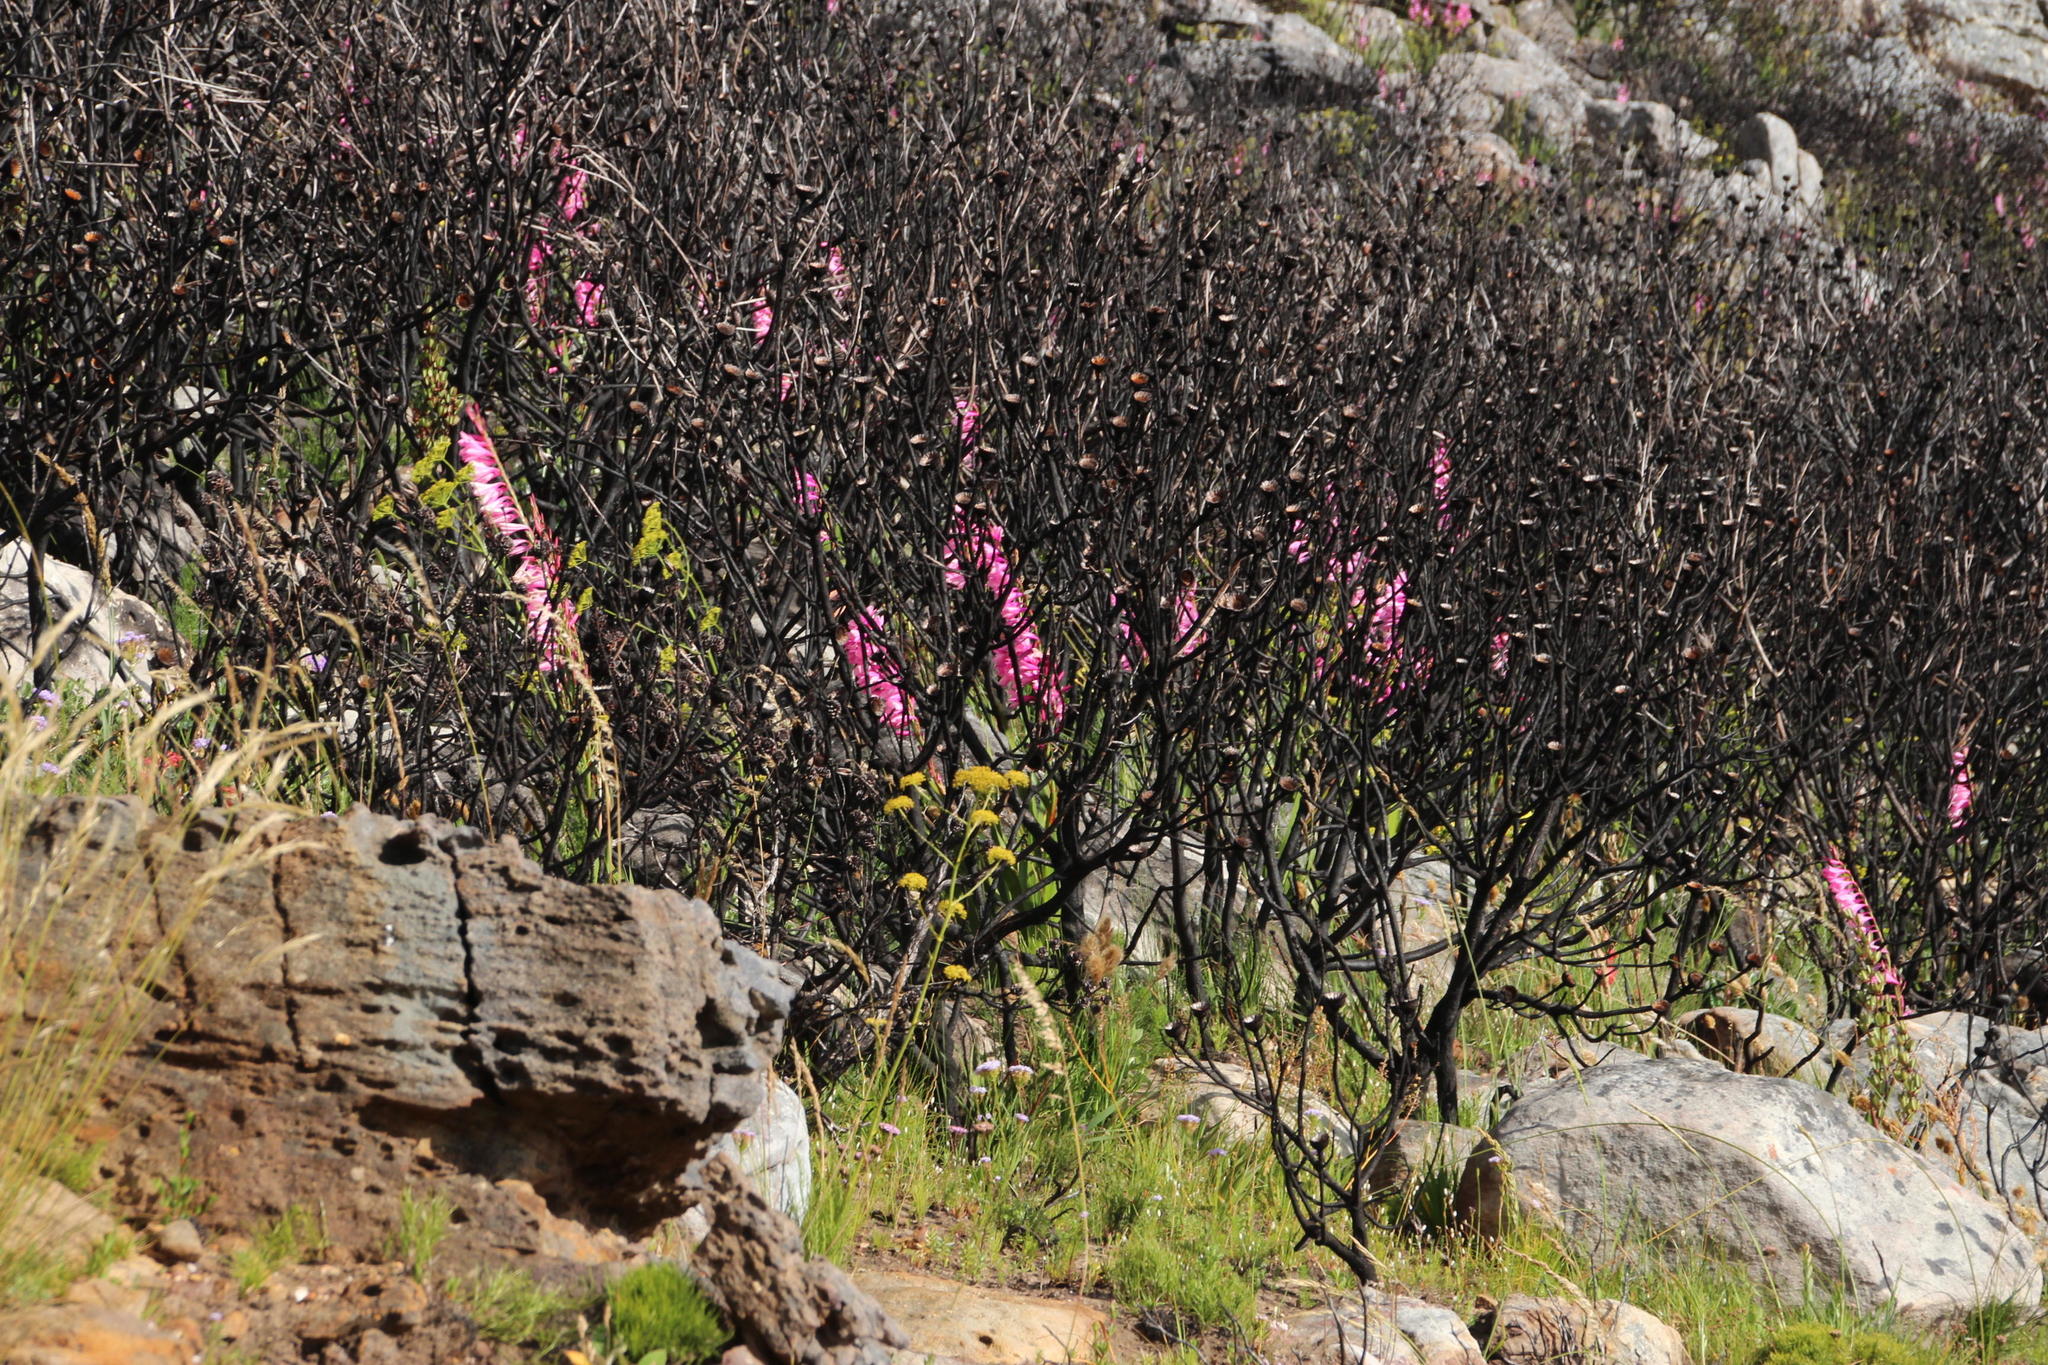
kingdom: Plantae
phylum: Tracheophyta
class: Liliopsida
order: Asparagales
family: Iridaceae
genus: Watsonia
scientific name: Watsonia borbonica
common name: Bugle-lily
